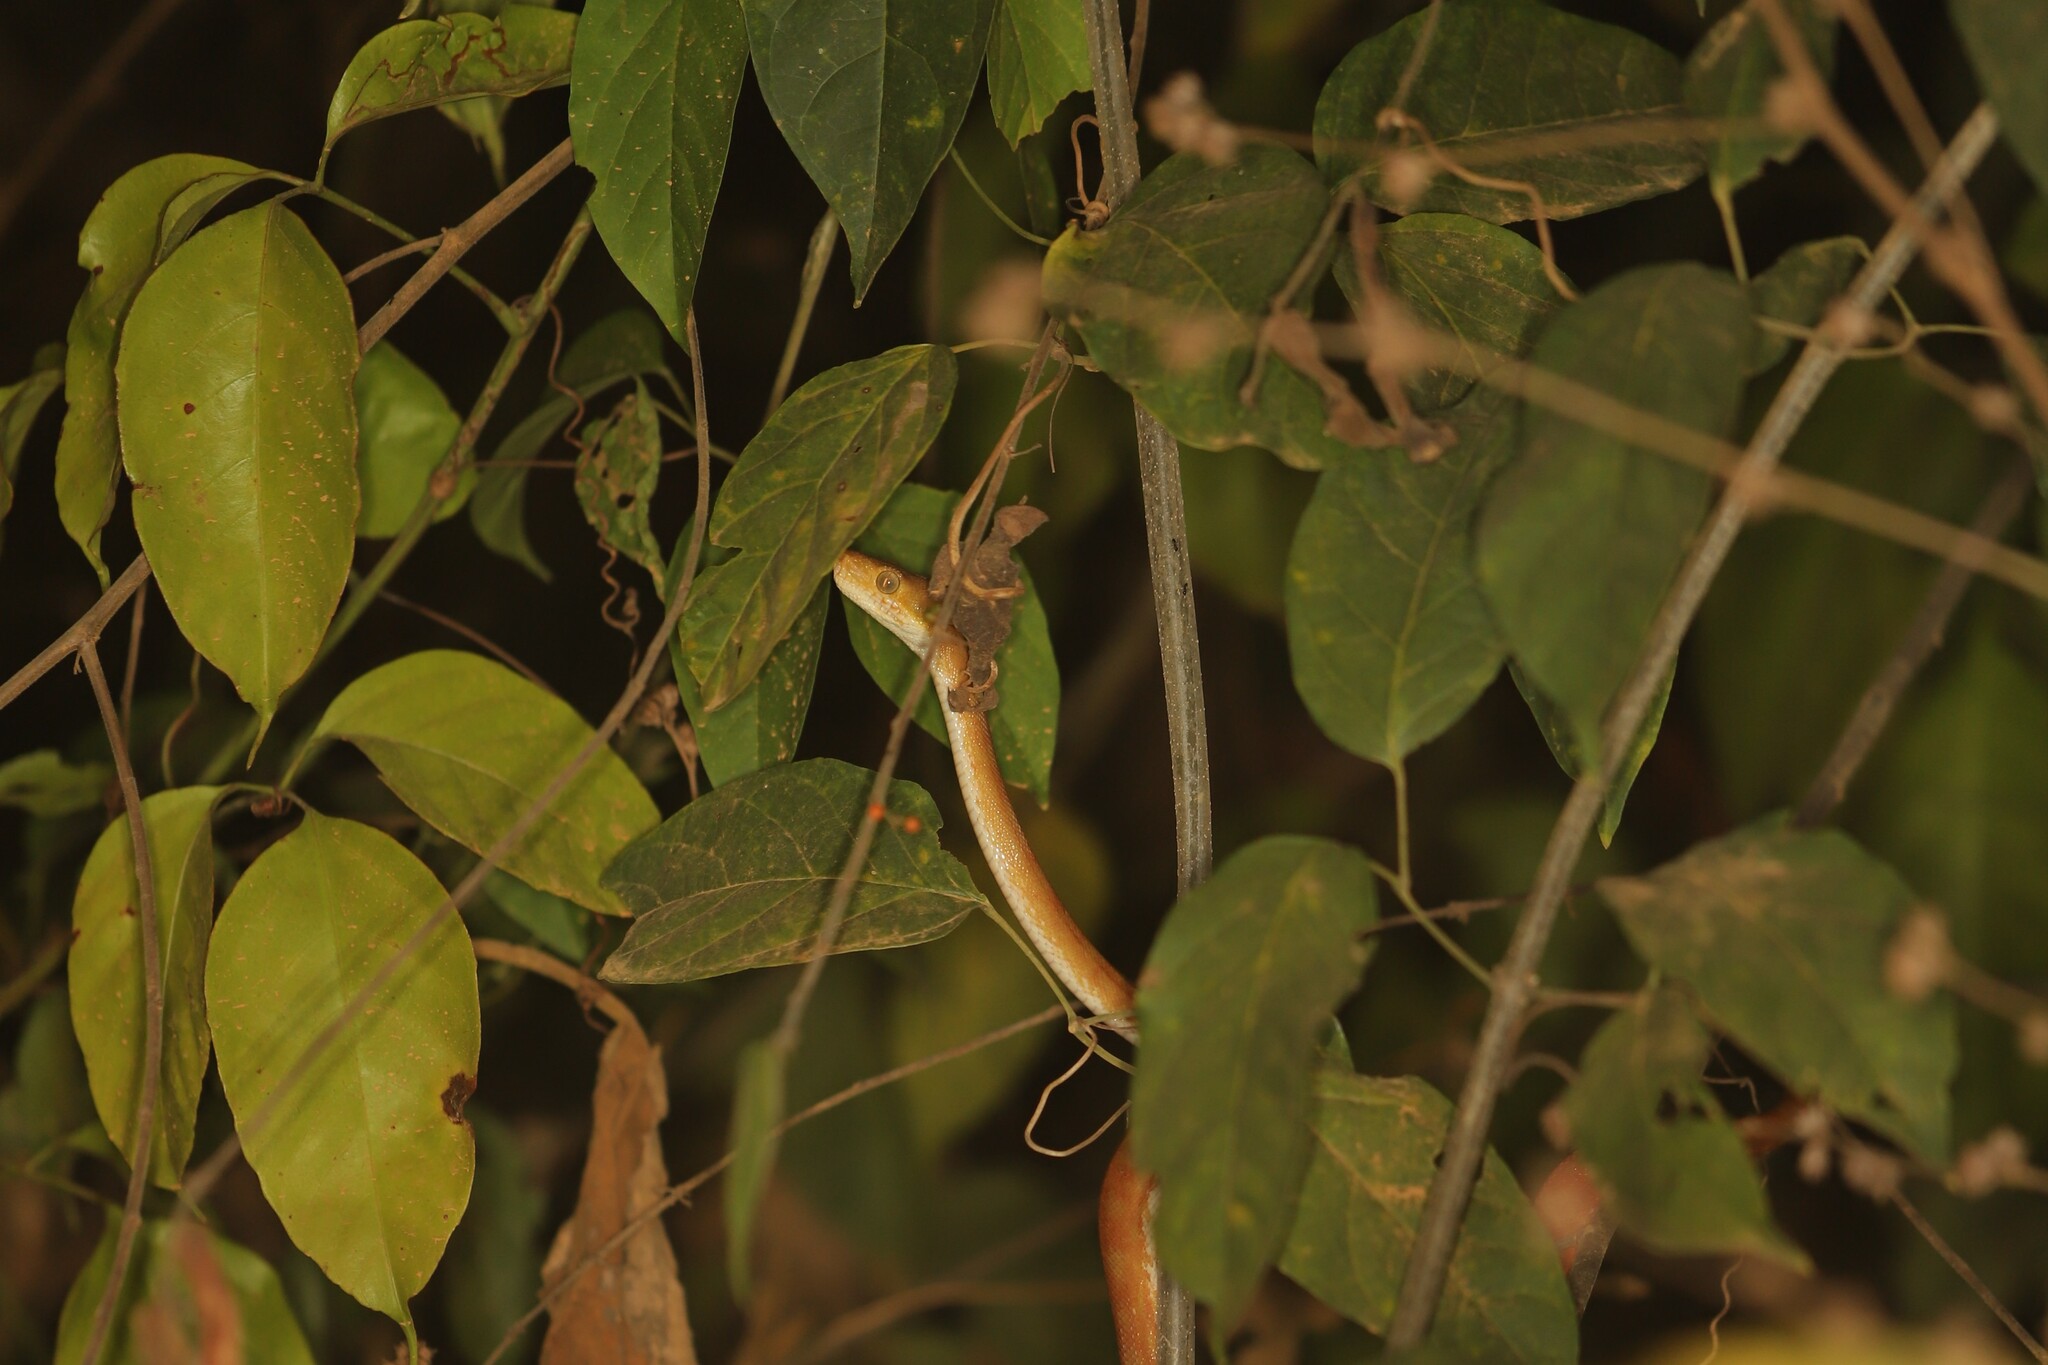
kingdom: Animalia
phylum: Chordata
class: Squamata
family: Boidae
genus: Corallus
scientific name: Corallus hortulana
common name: Garden tree boa
